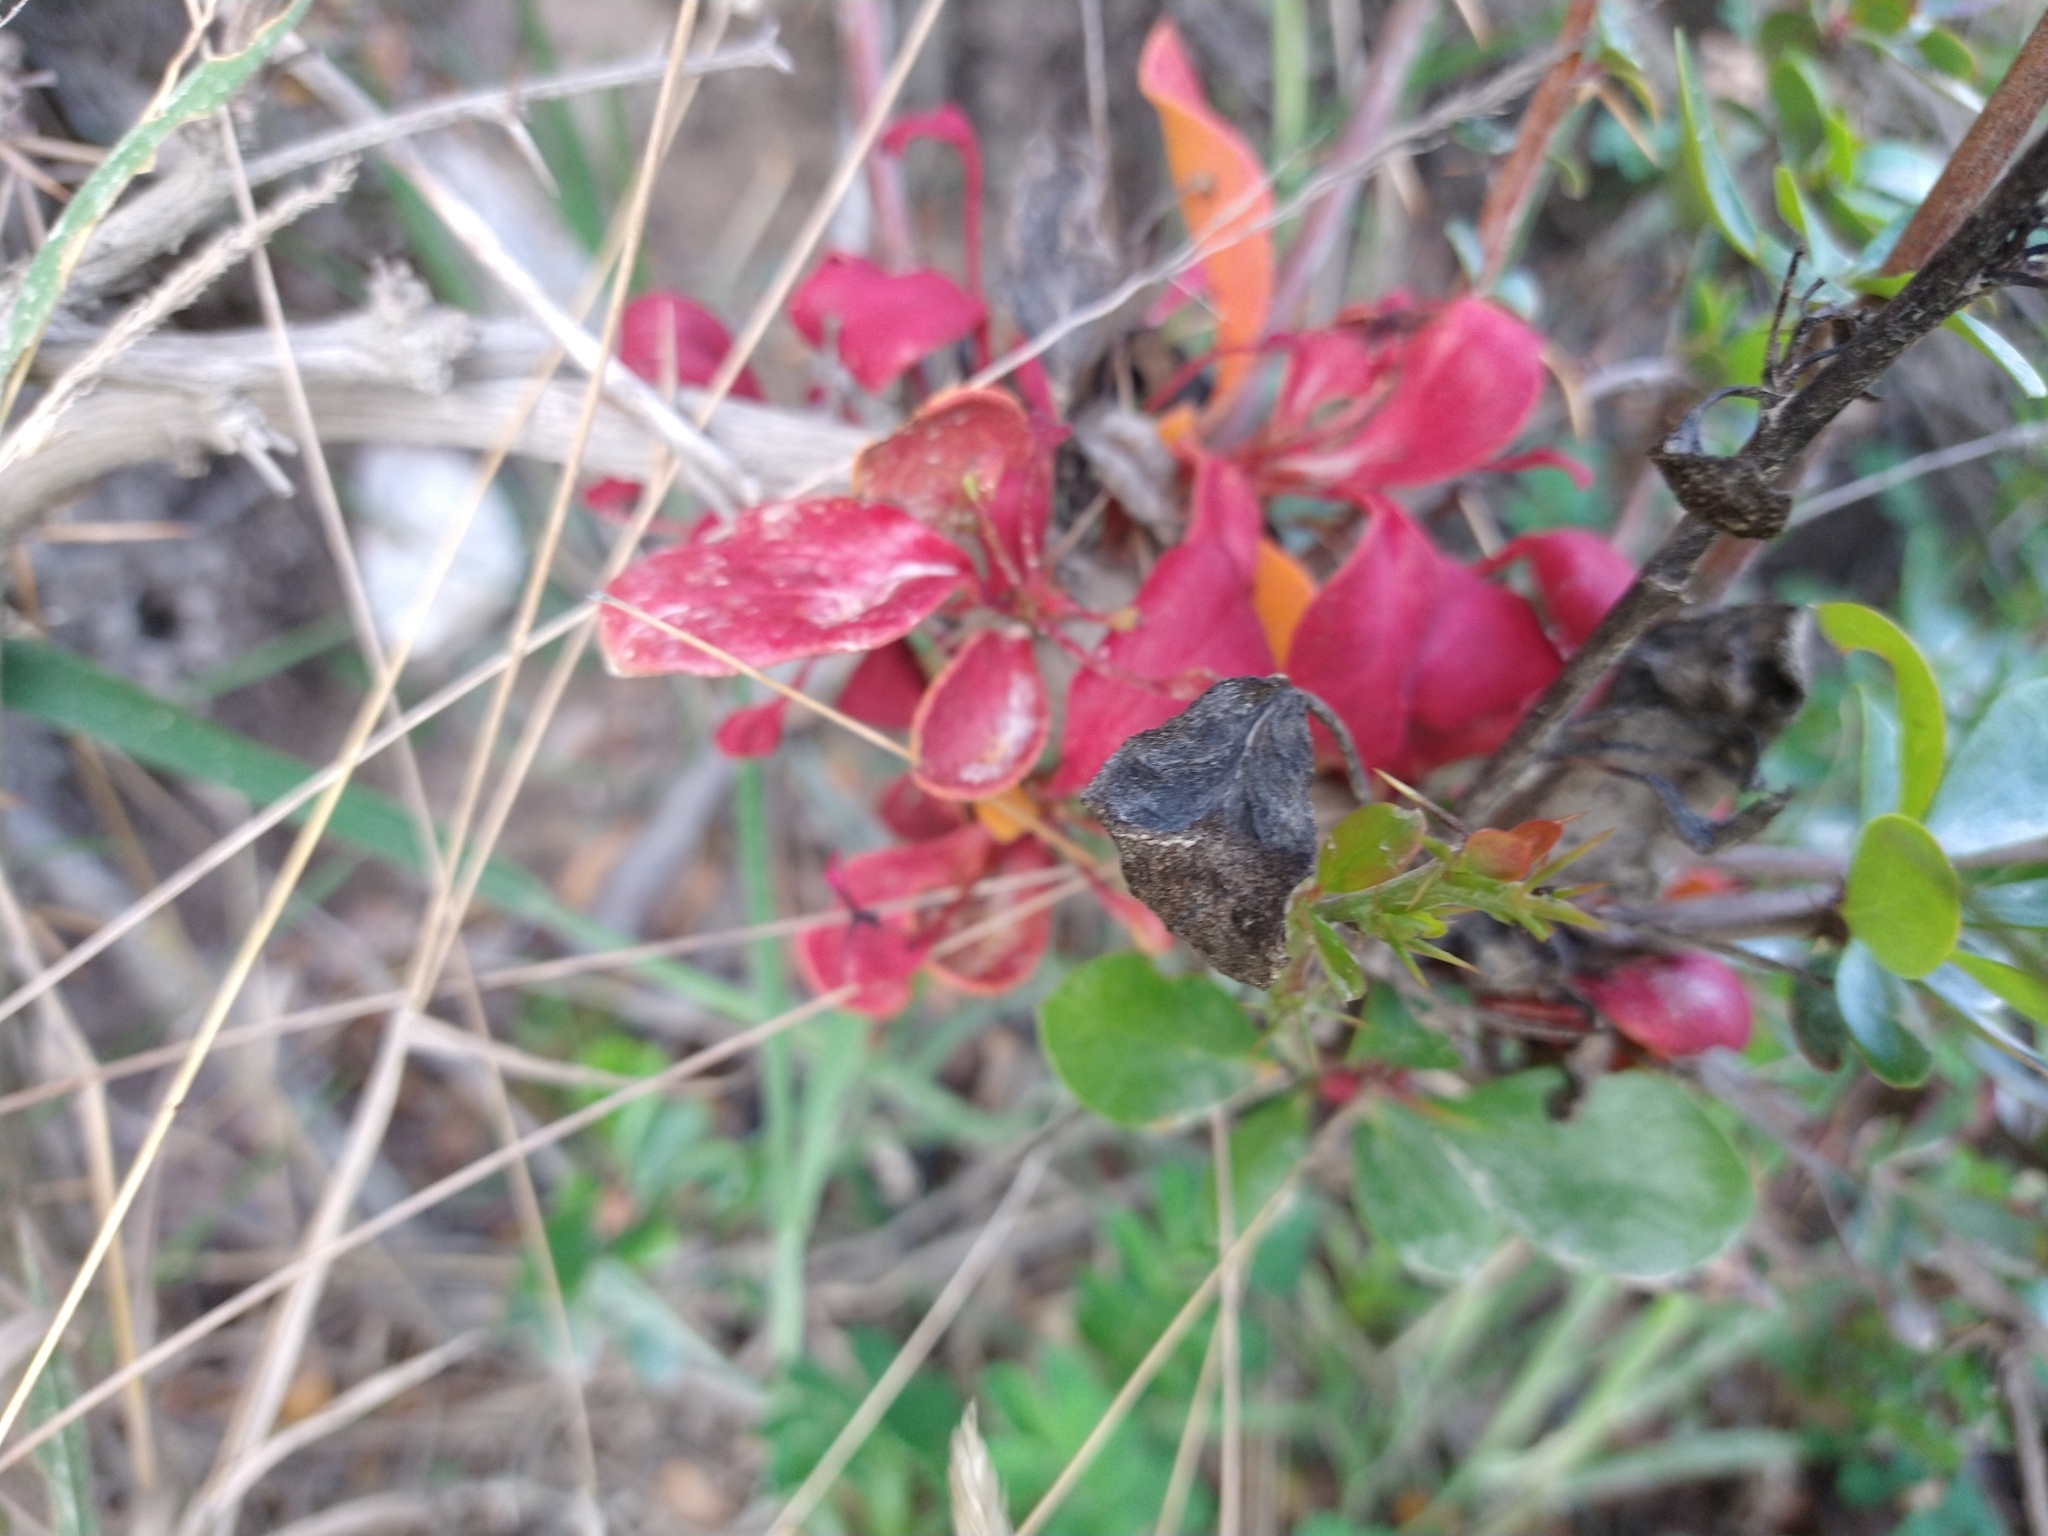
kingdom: Fungi
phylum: Basidiomycota
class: Pucciniomycetes
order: Pucciniales
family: Pucciniaceae
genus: Puccinia
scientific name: Puccinia magellanica
